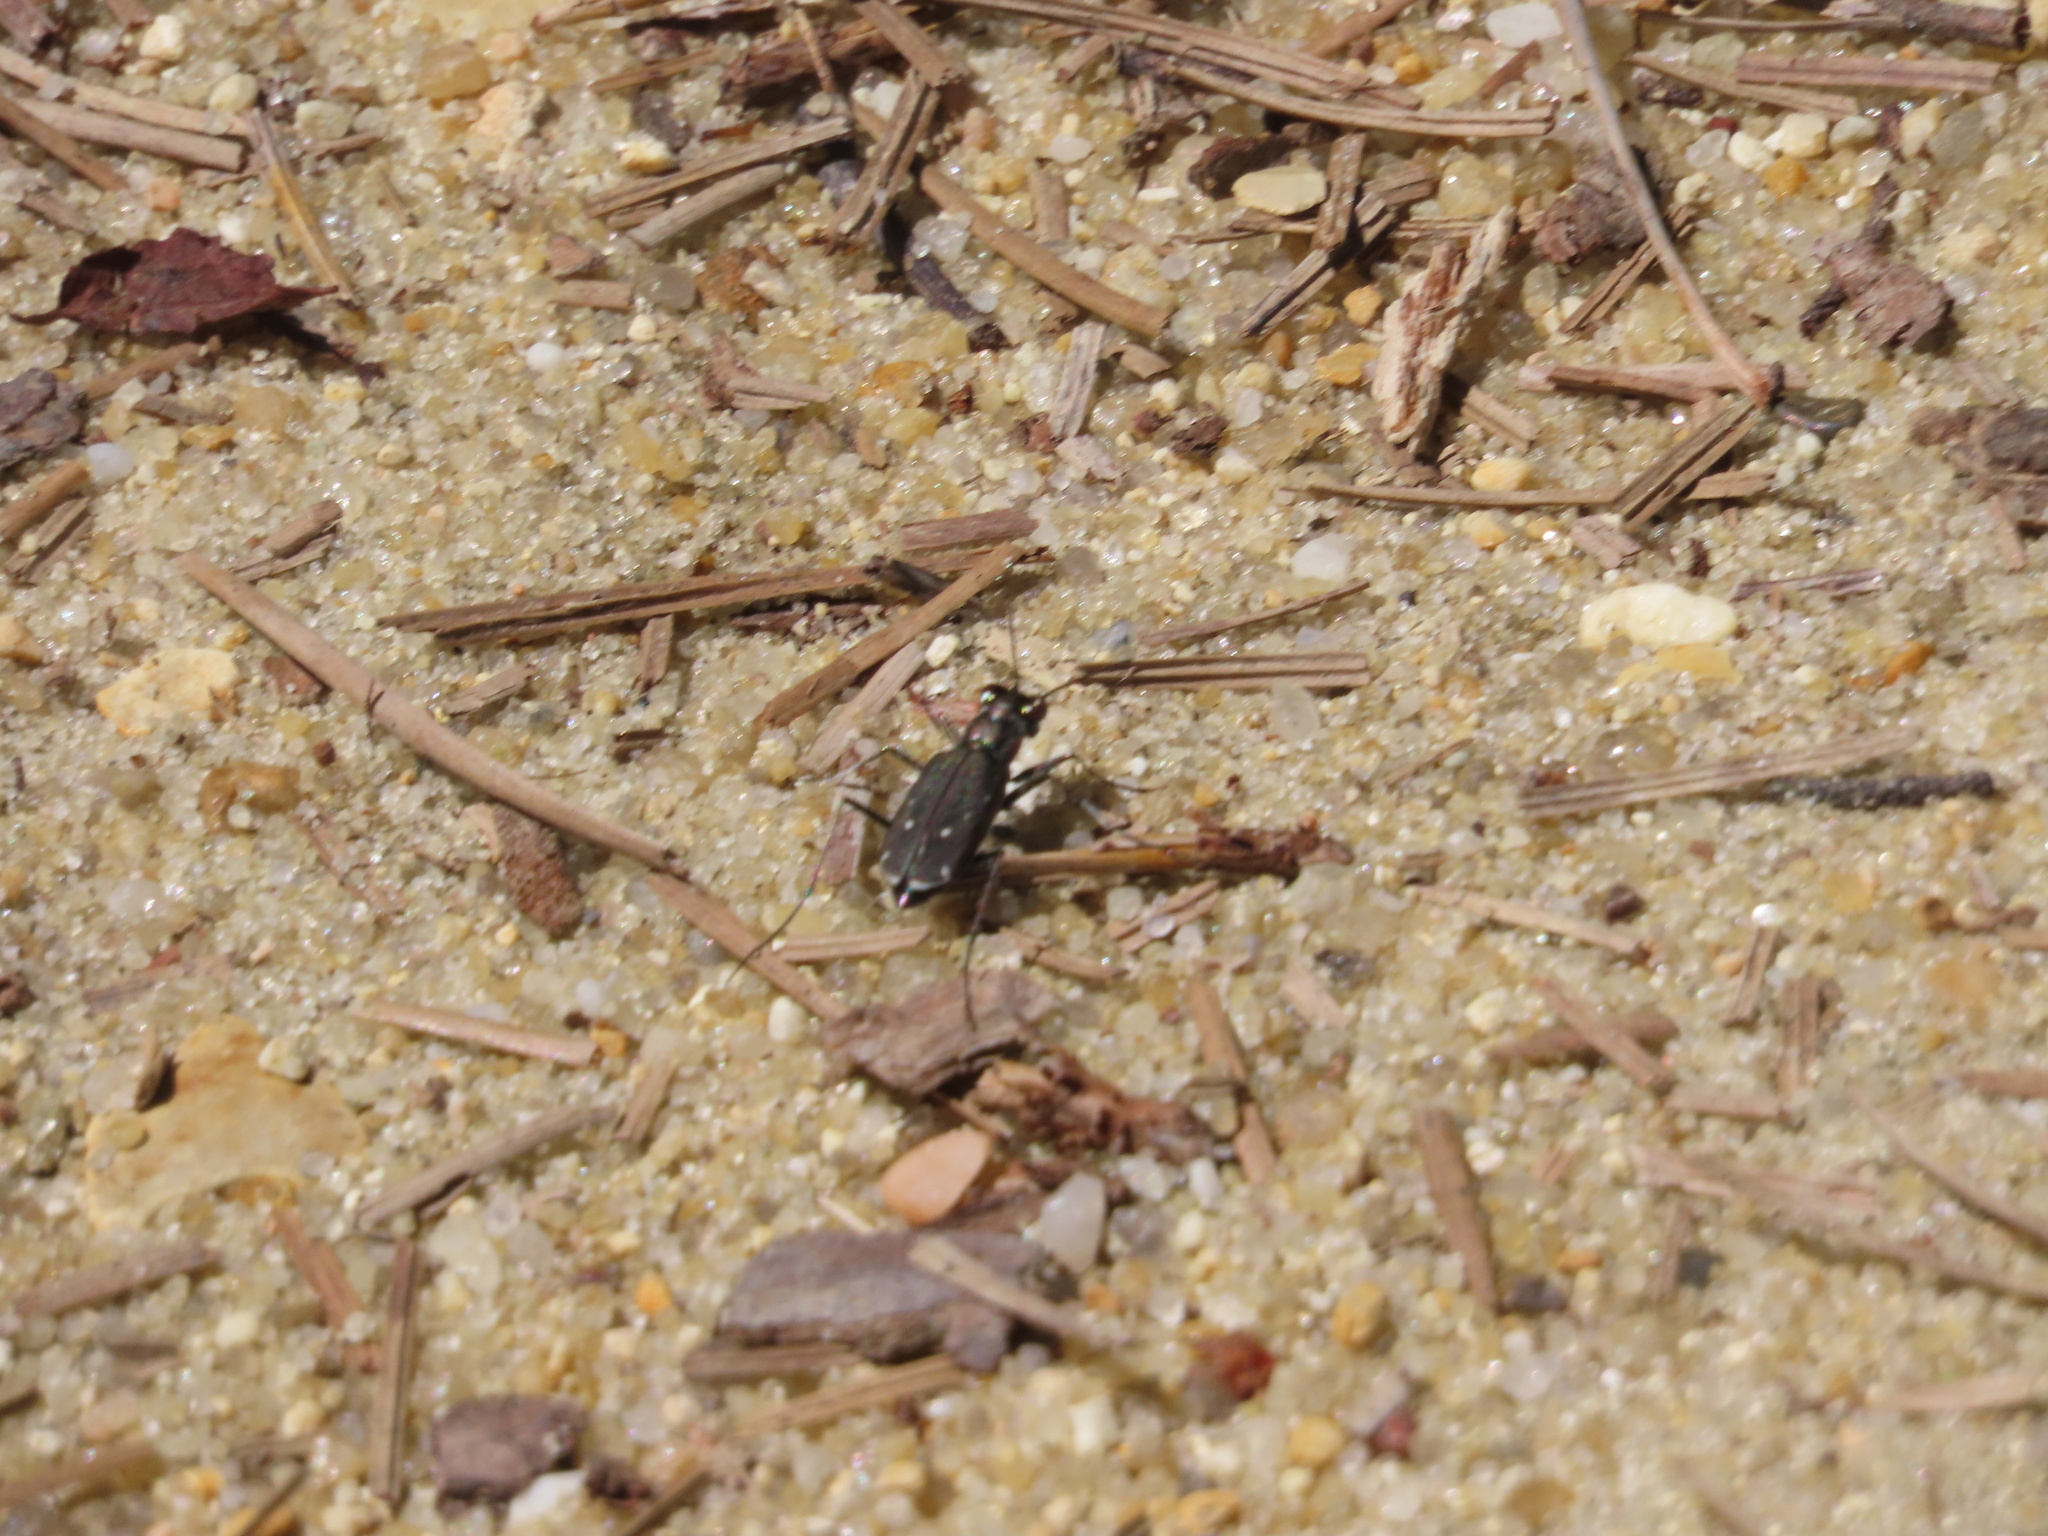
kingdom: Animalia
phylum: Arthropoda
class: Insecta
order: Coleoptera
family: Carabidae
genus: Cicindela
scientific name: Cicindela punctulata
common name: Punctured tiger beetle
